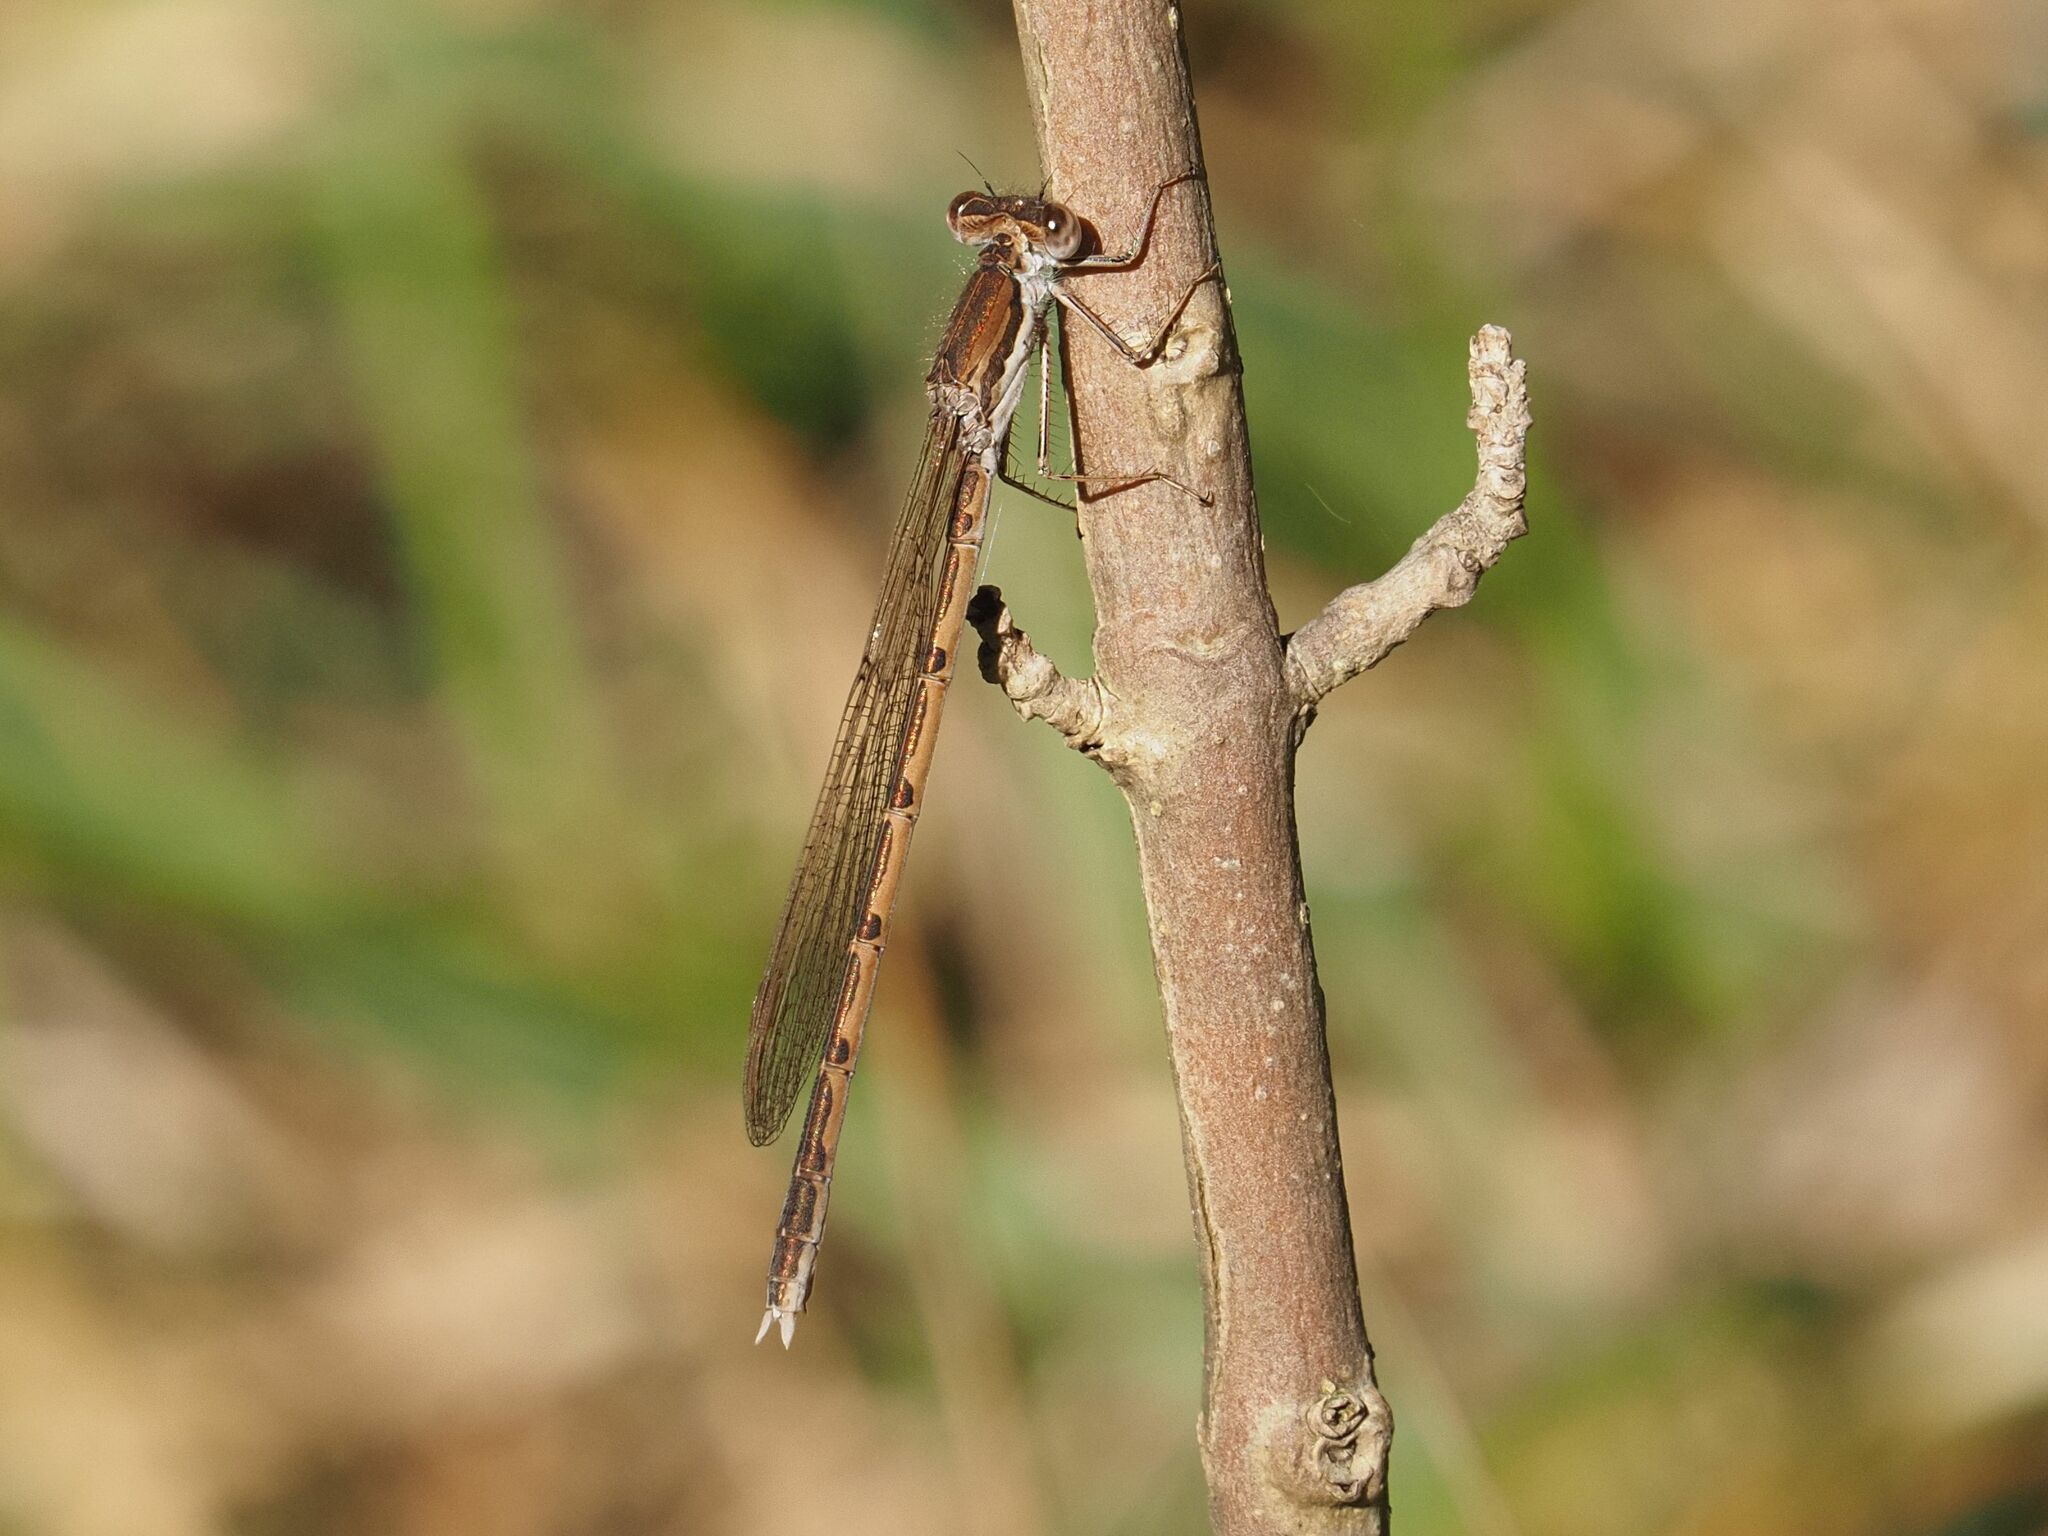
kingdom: Animalia
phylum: Arthropoda
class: Insecta
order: Odonata
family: Lestidae
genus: Sympecma
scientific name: Sympecma fusca
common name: Common winter damsel
